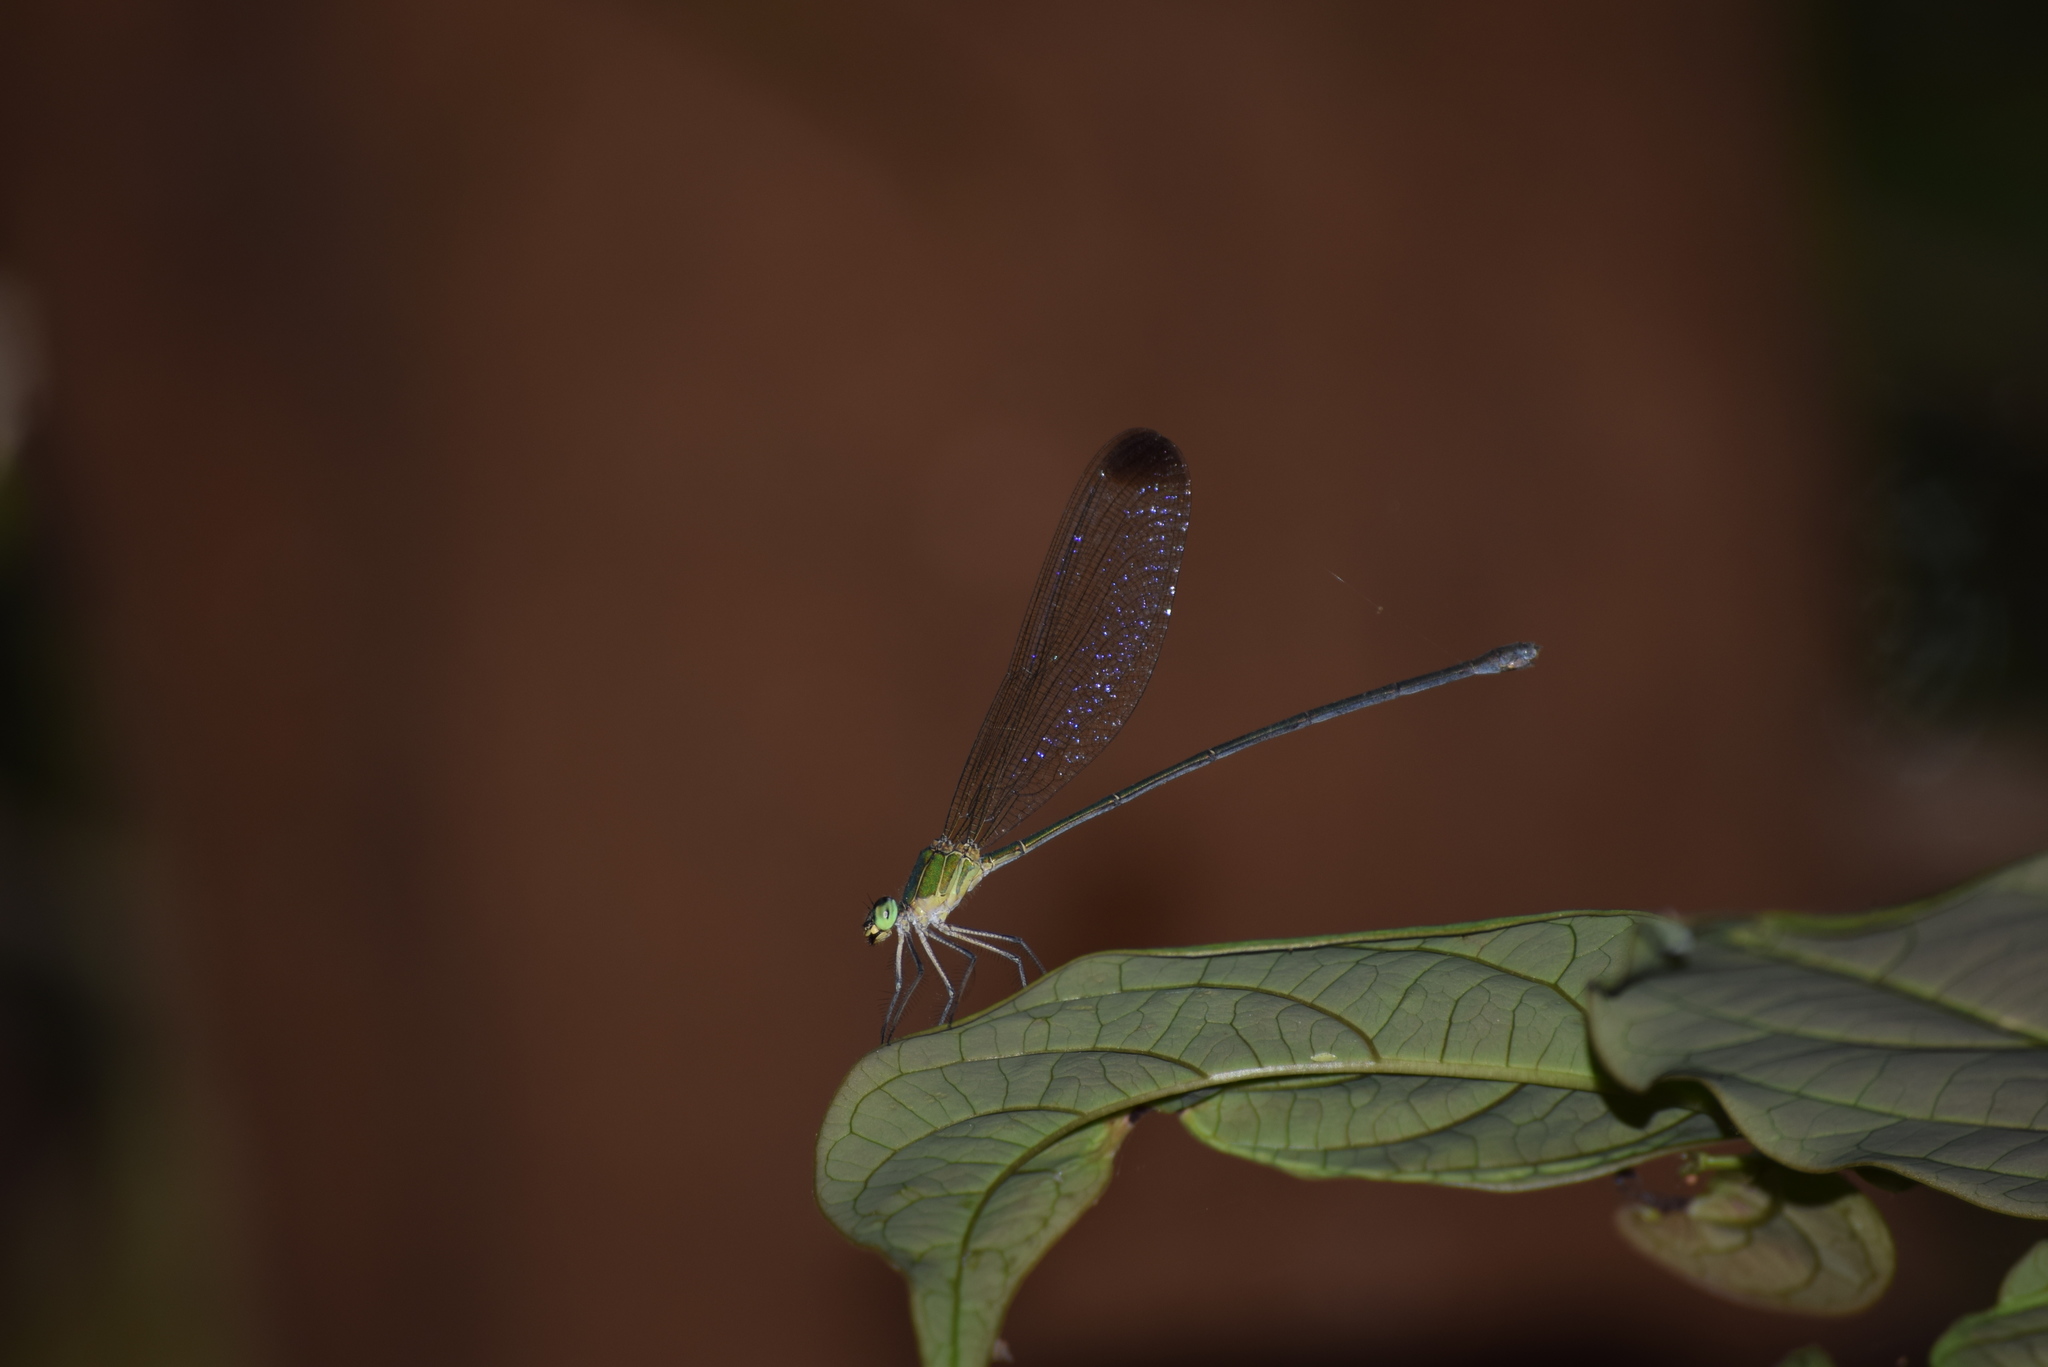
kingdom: Animalia
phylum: Arthropoda
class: Insecta
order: Odonata
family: Calopterygidae
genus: Vestalis
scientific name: Vestalis apicalis
